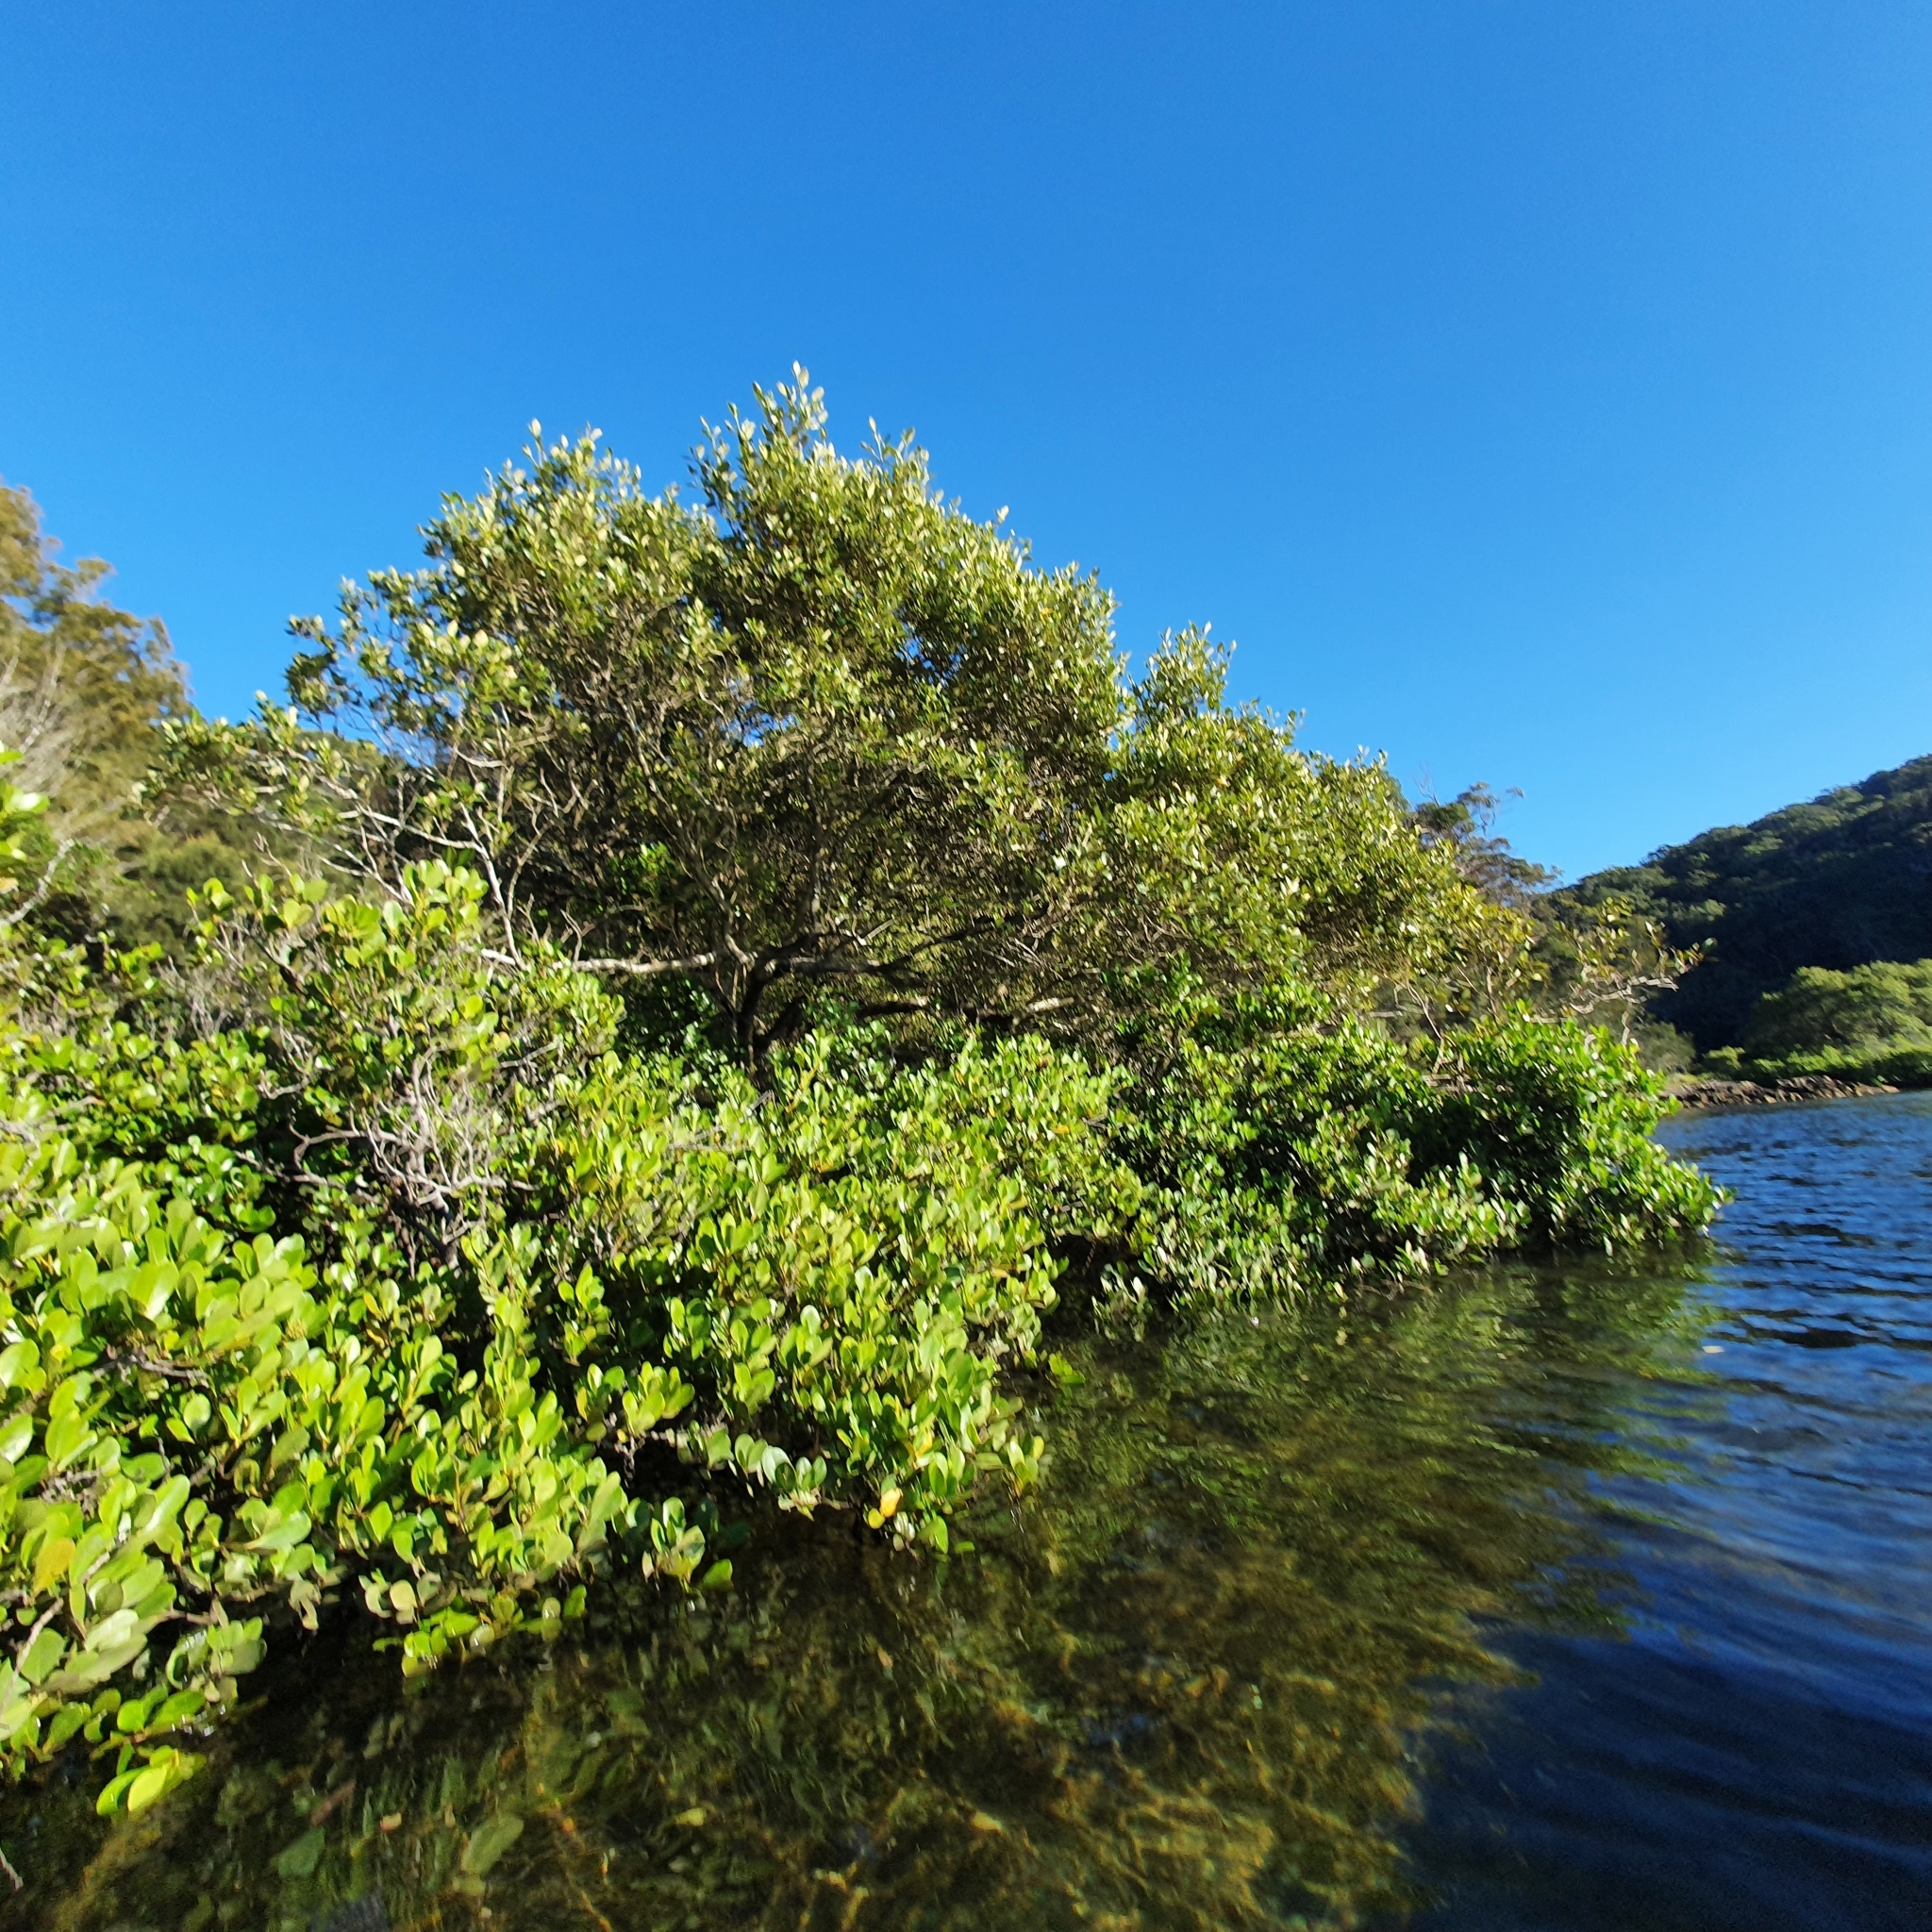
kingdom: Plantae
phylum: Tracheophyta
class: Magnoliopsida
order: Ericales
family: Primulaceae
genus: Aegiceras
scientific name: Aegiceras corniculatum
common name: River mangrove
